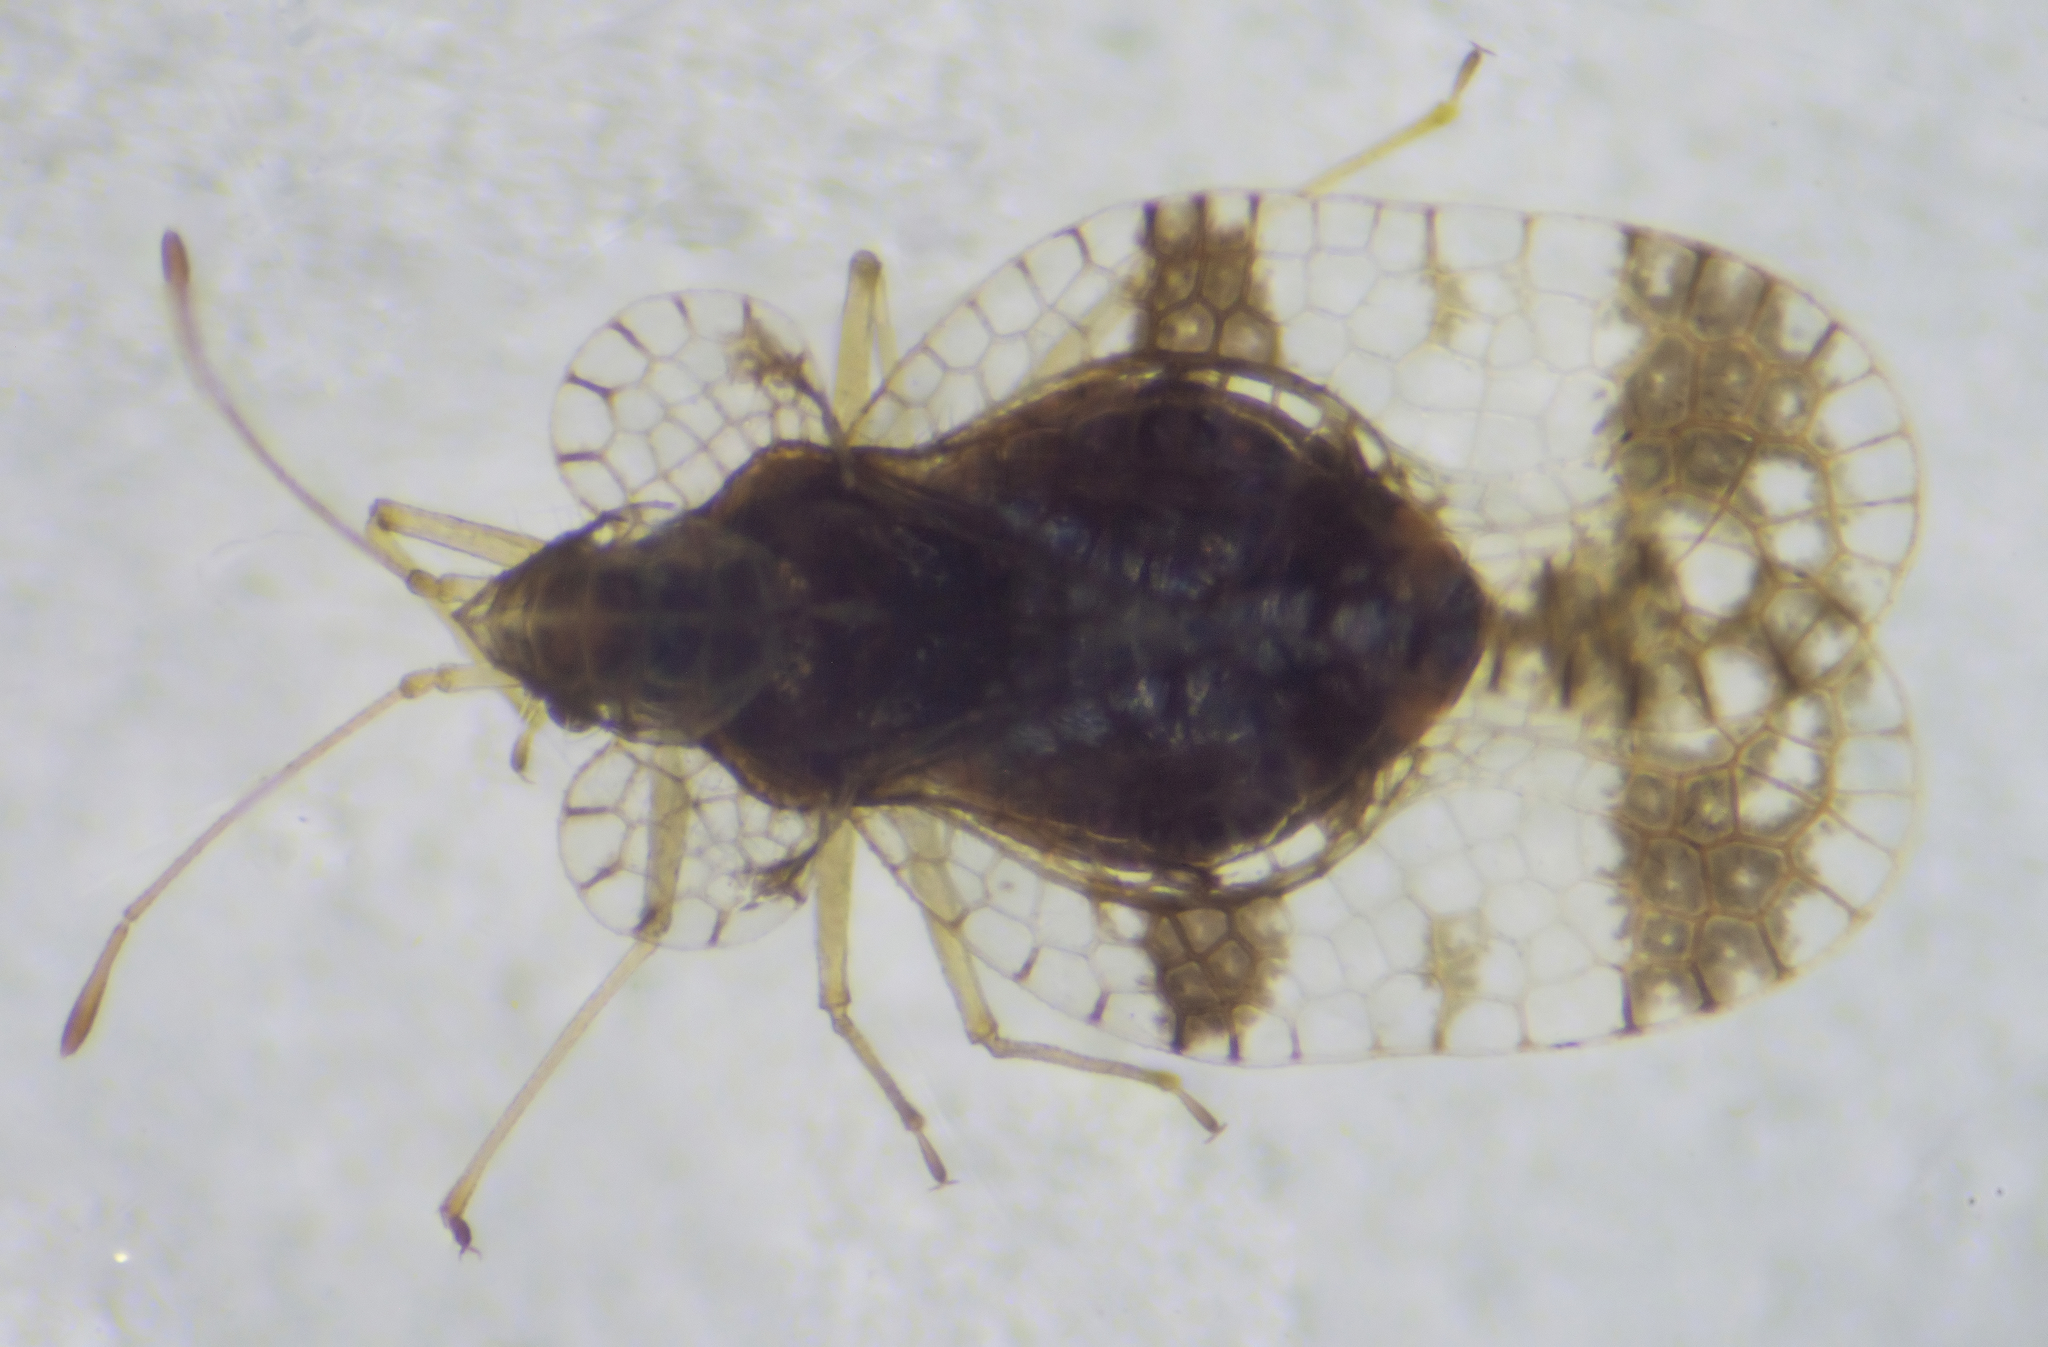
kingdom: Animalia
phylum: Arthropoda
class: Insecta
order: Hemiptera
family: Tingidae
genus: Stephanitis
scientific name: Stephanitis pyri
